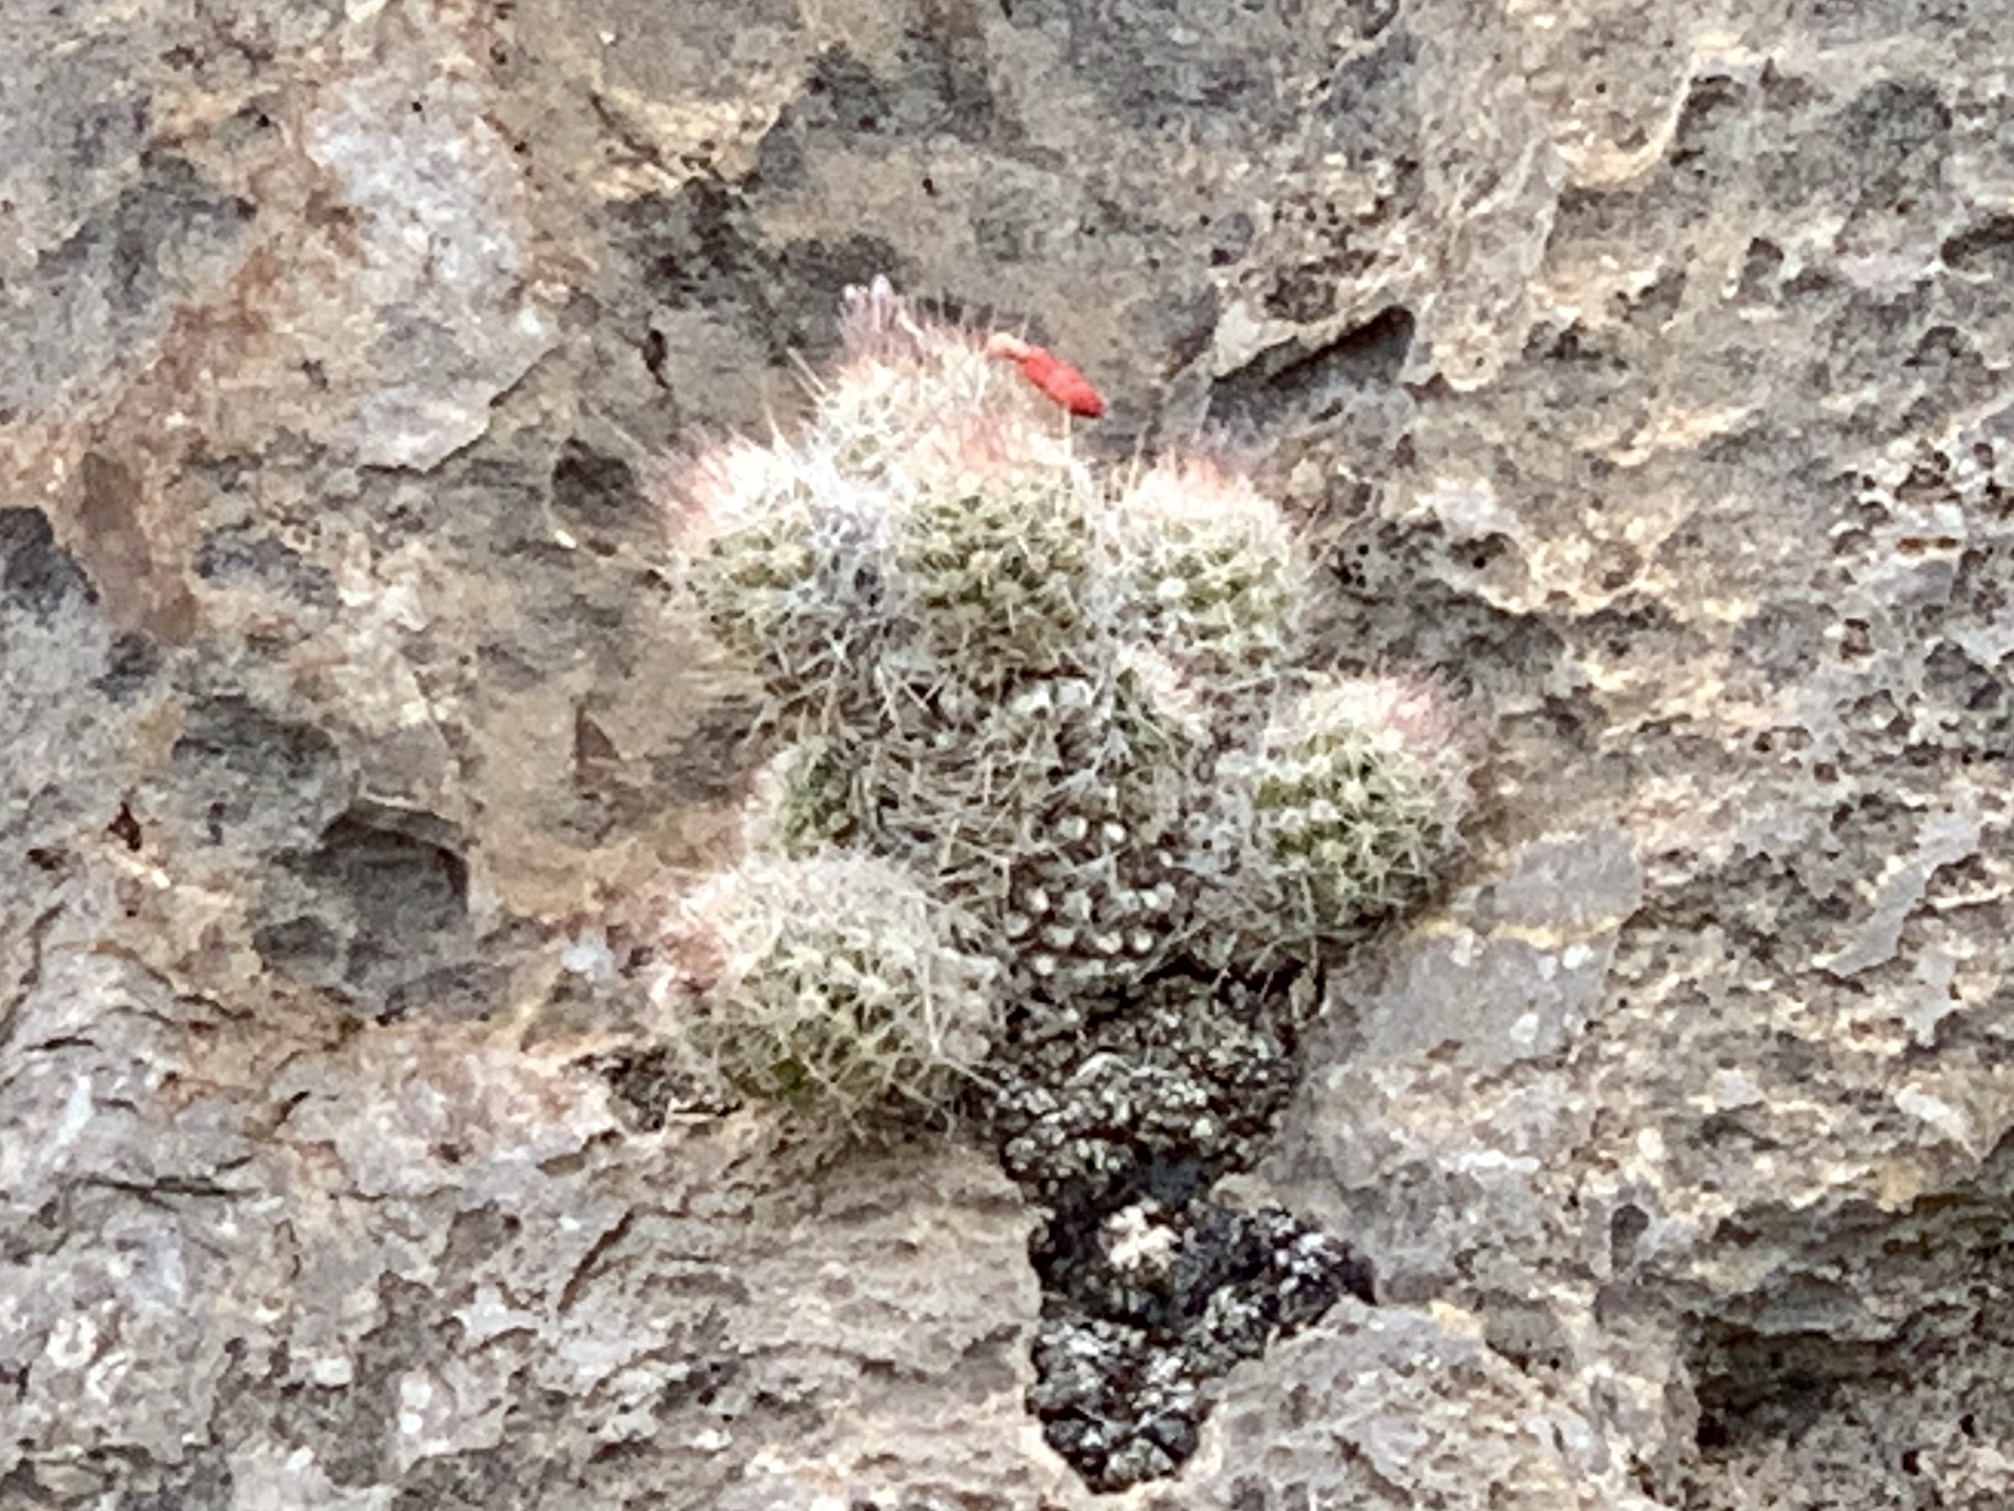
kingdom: Plantae
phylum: Tracheophyta
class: Magnoliopsida
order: Caryophyllales
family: Cactaceae
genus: Pelecyphora
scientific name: Pelecyphora tuberculosa
